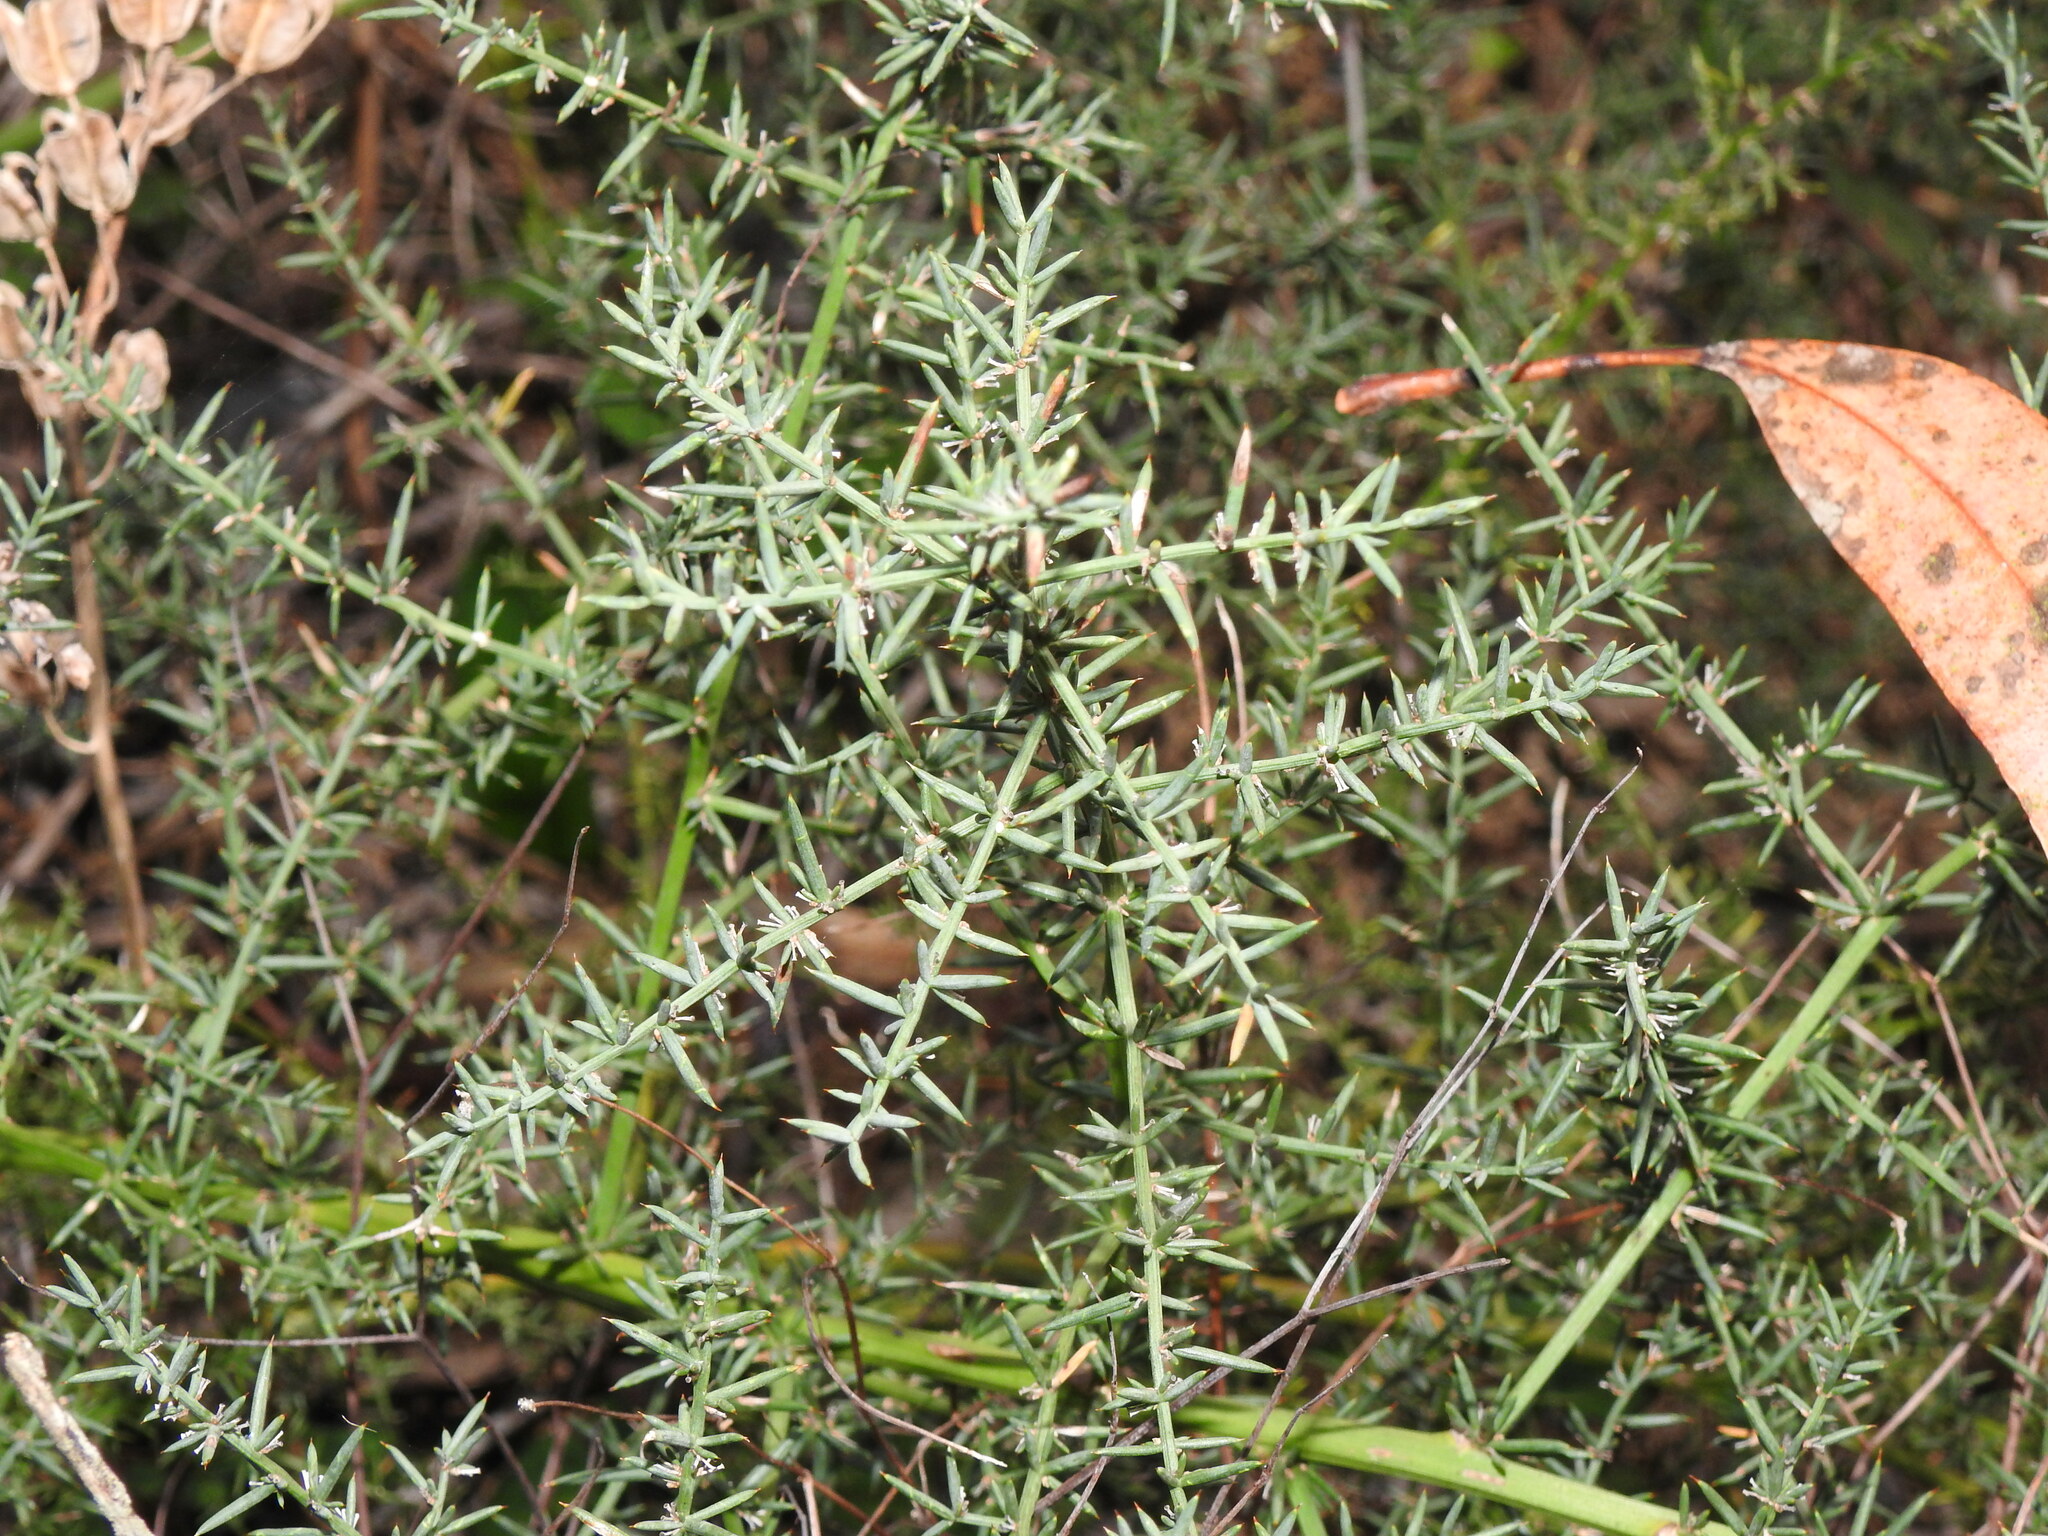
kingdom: Plantae
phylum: Tracheophyta
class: Liliopsida
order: Asparagales
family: Asparagaceae
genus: Asparagus
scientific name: Asparagus aphyllus
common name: Mediterranean asparagus
